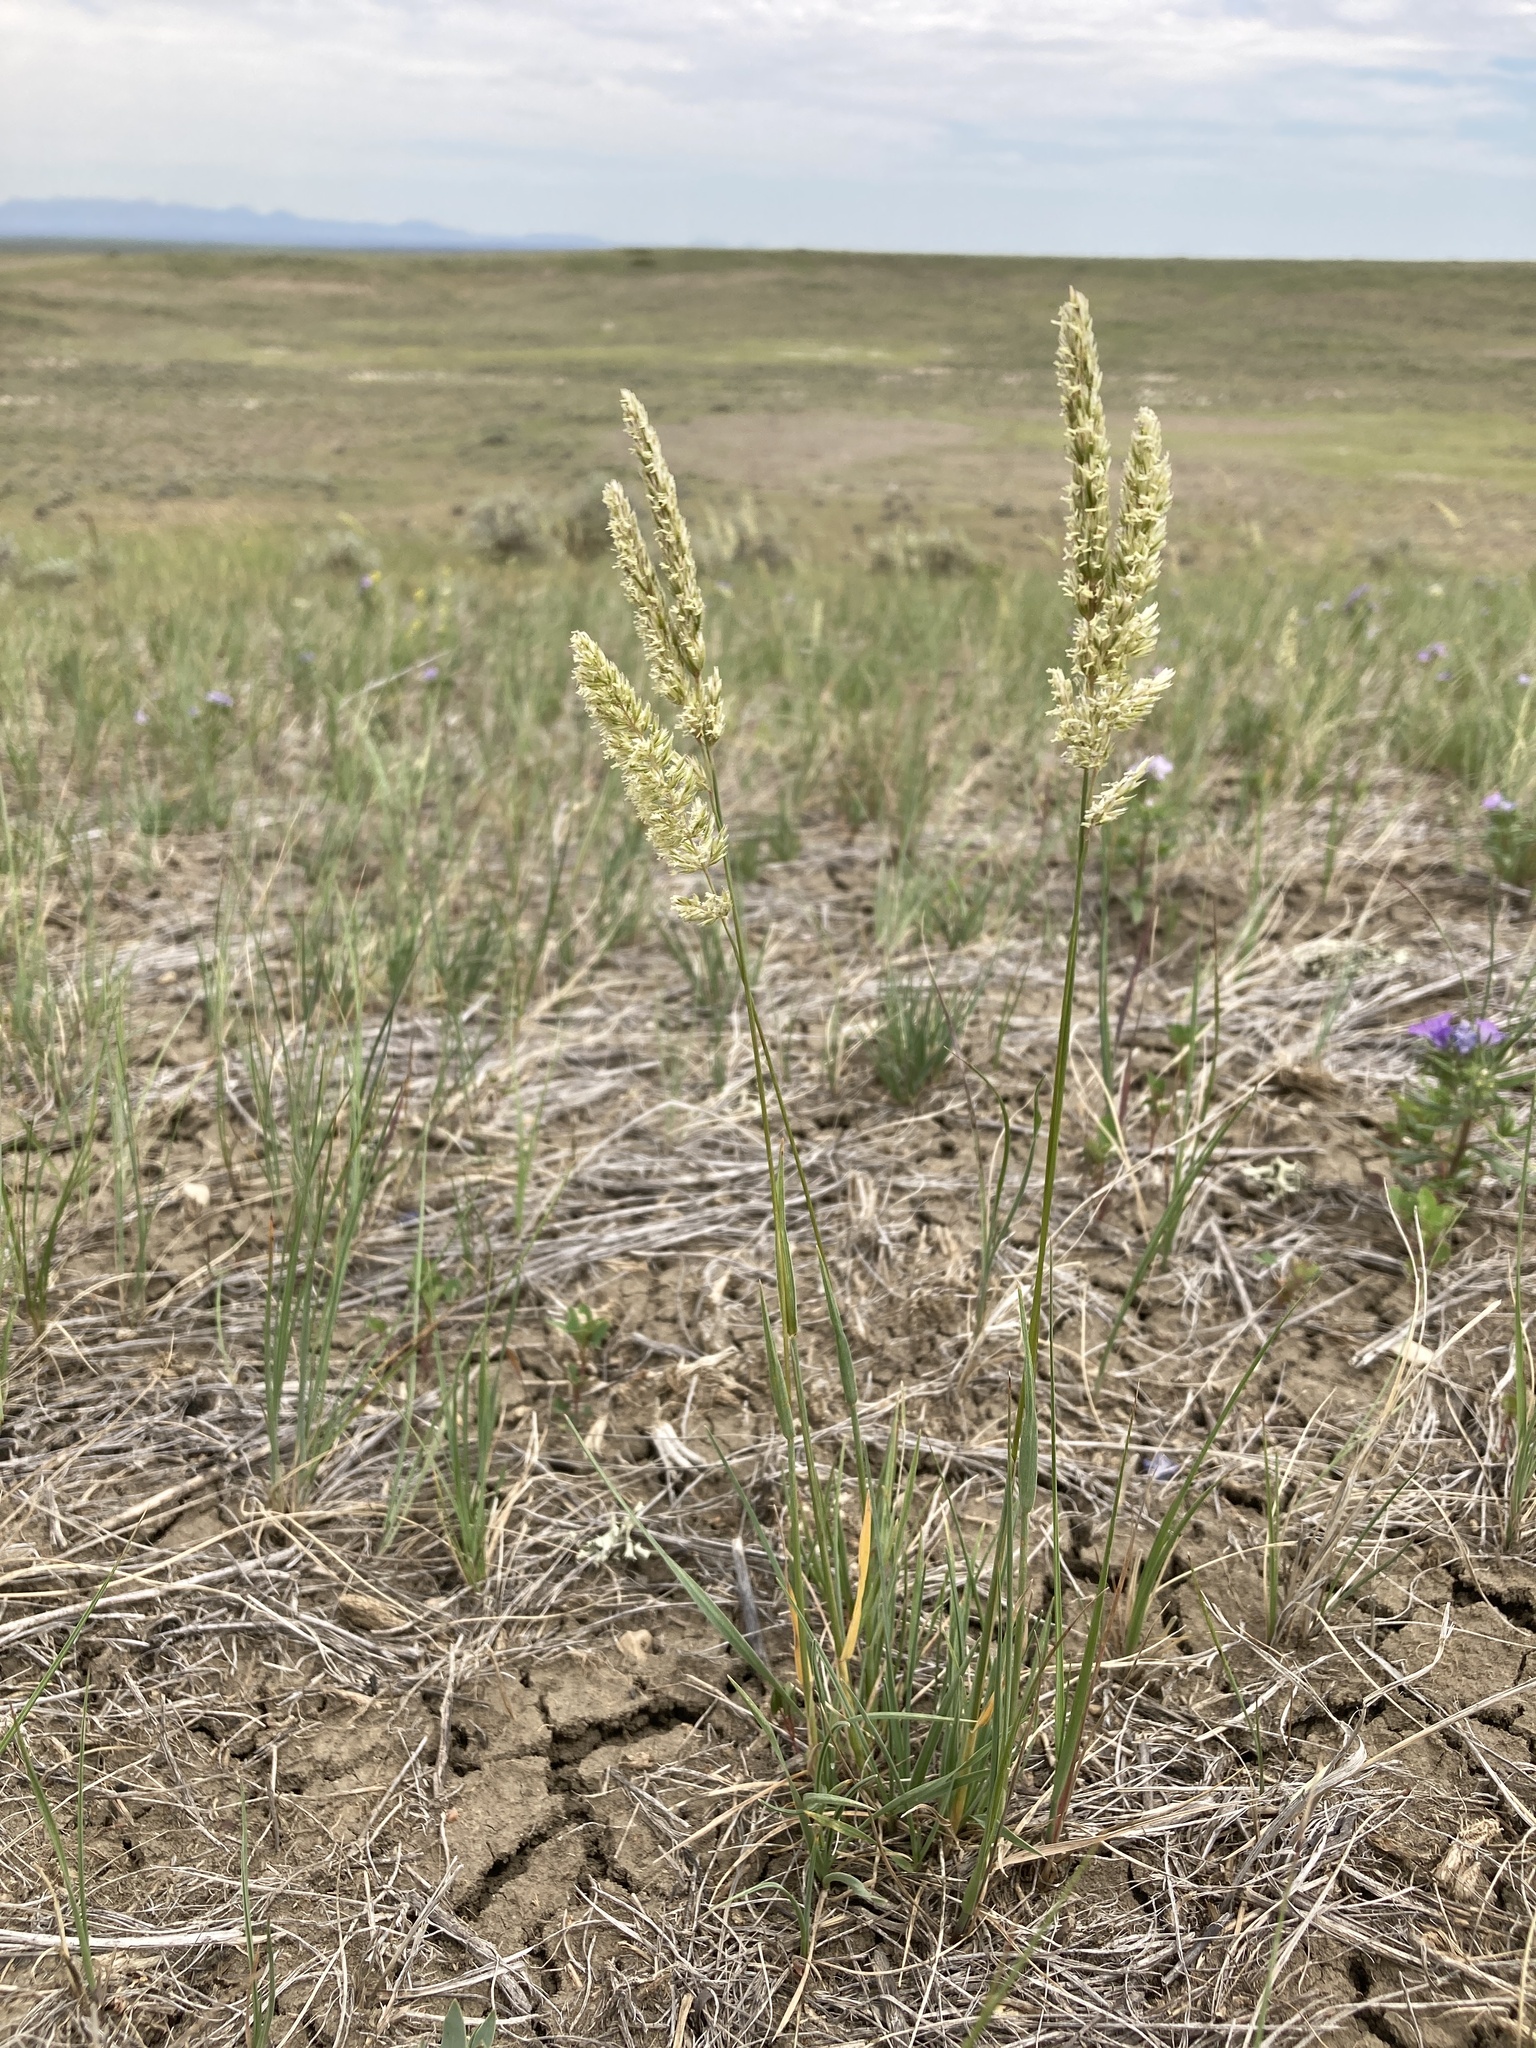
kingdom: Plantae
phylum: Tracheophyta
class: Liliopsida
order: Poales
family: Poaceae
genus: Koeleria
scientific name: Koeleria macrantha
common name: Crested hair-grass
